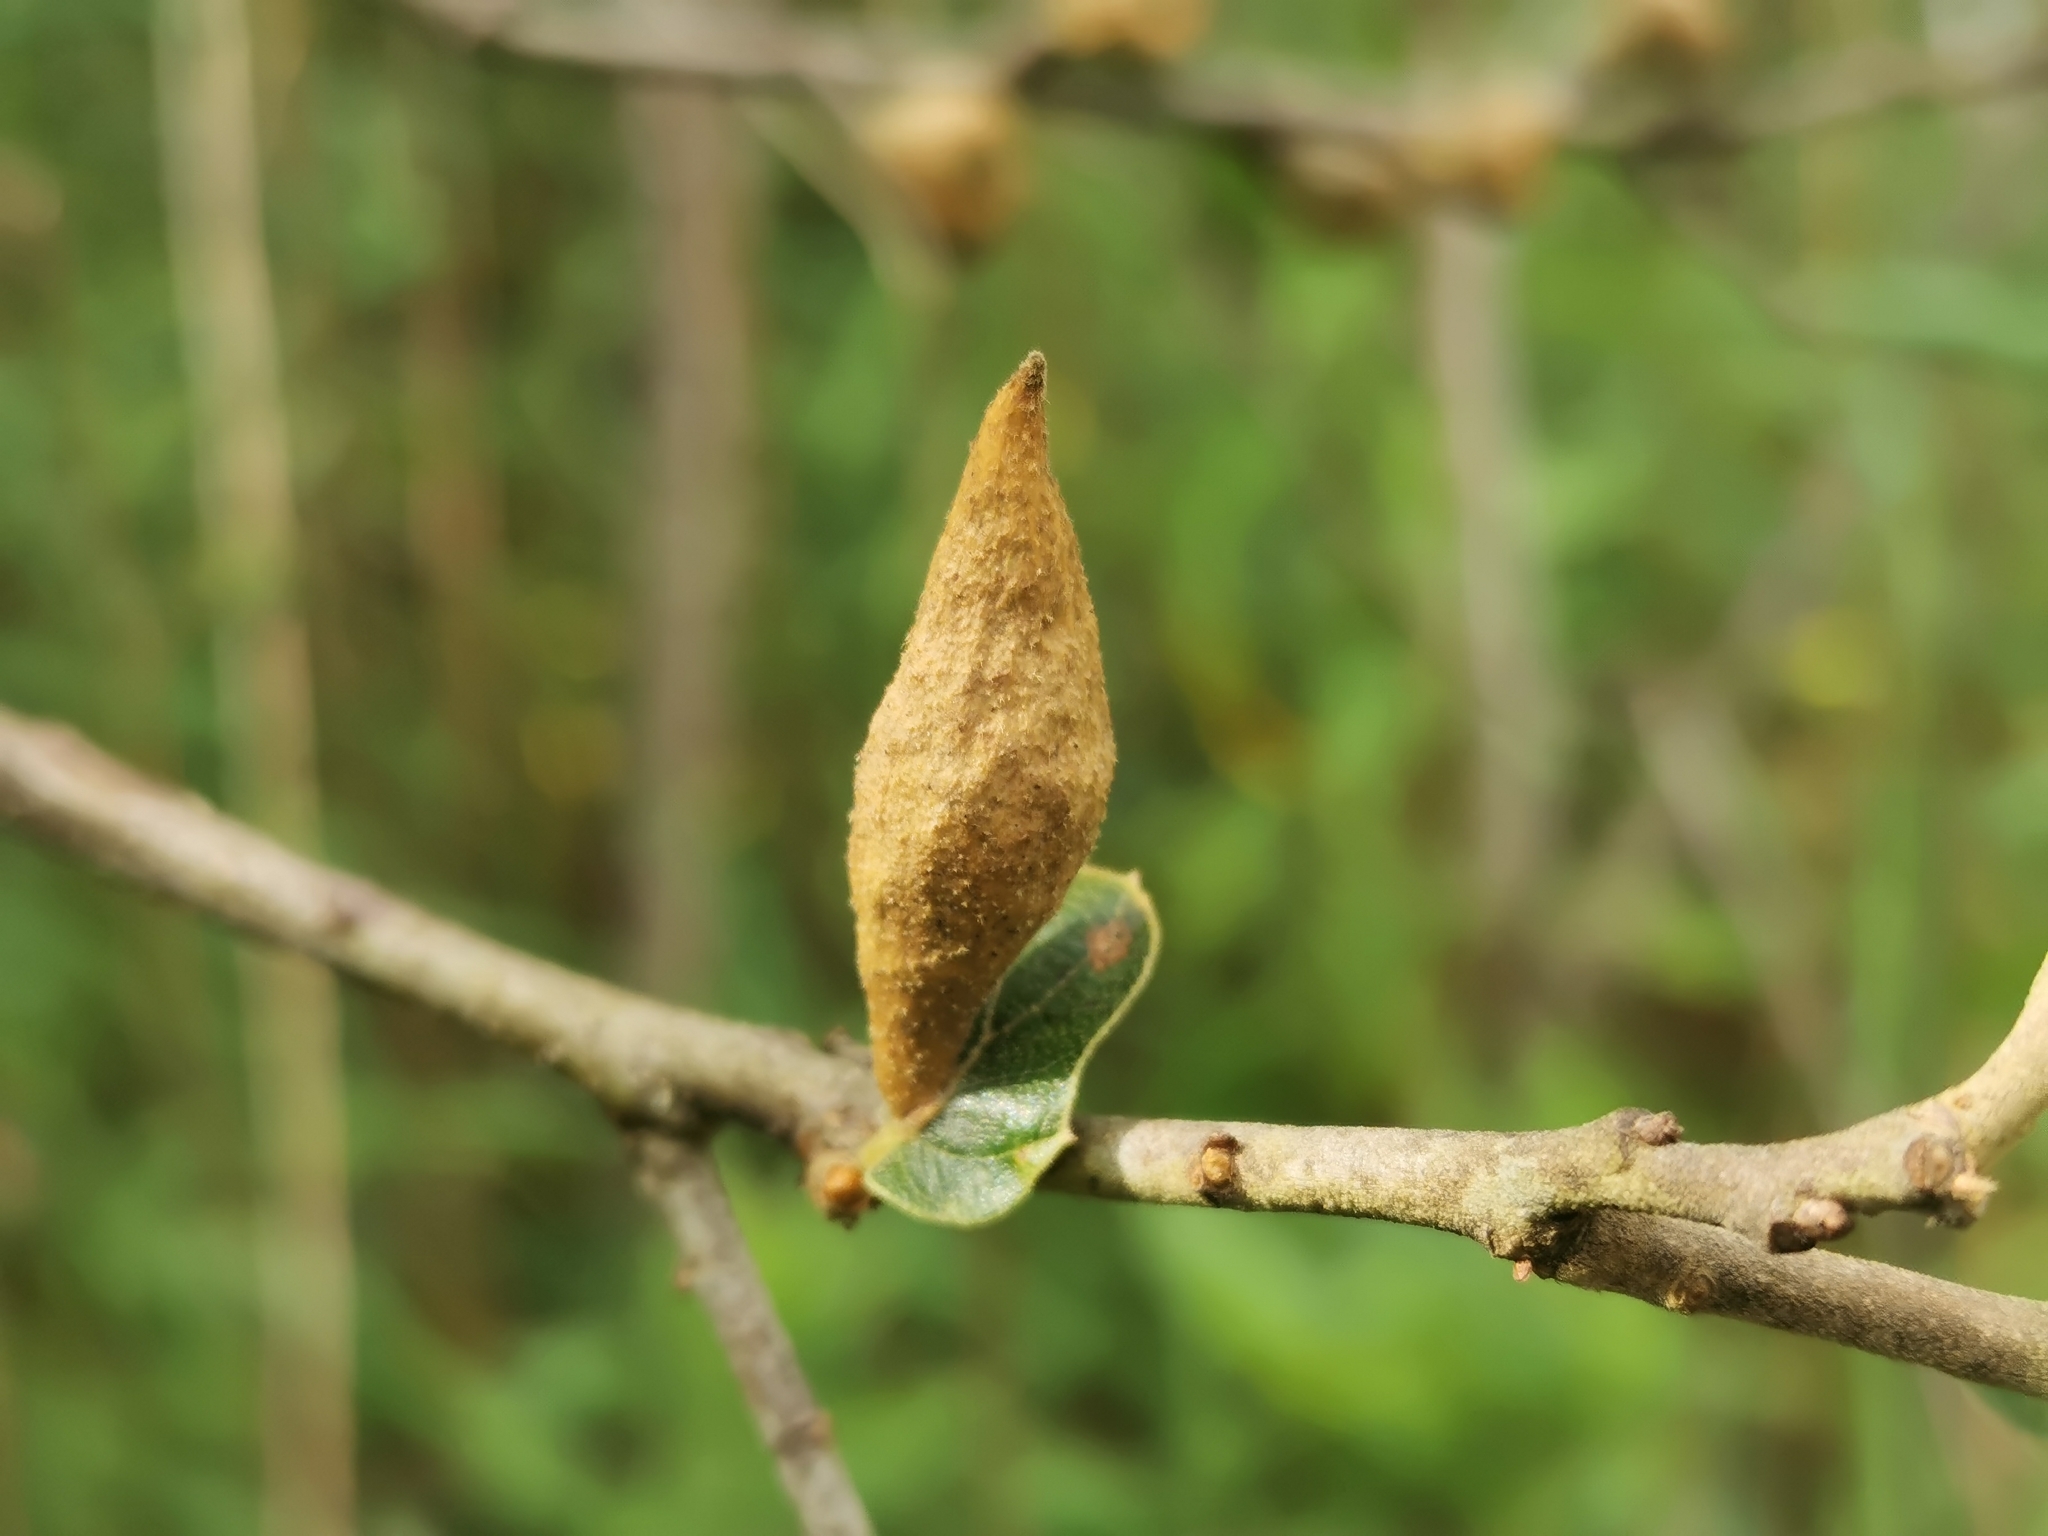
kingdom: Animalia
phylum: Arthropoda
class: Insecta
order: Hymenoptera
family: Cynipidae
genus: Amphibolips
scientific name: Amphibolips
